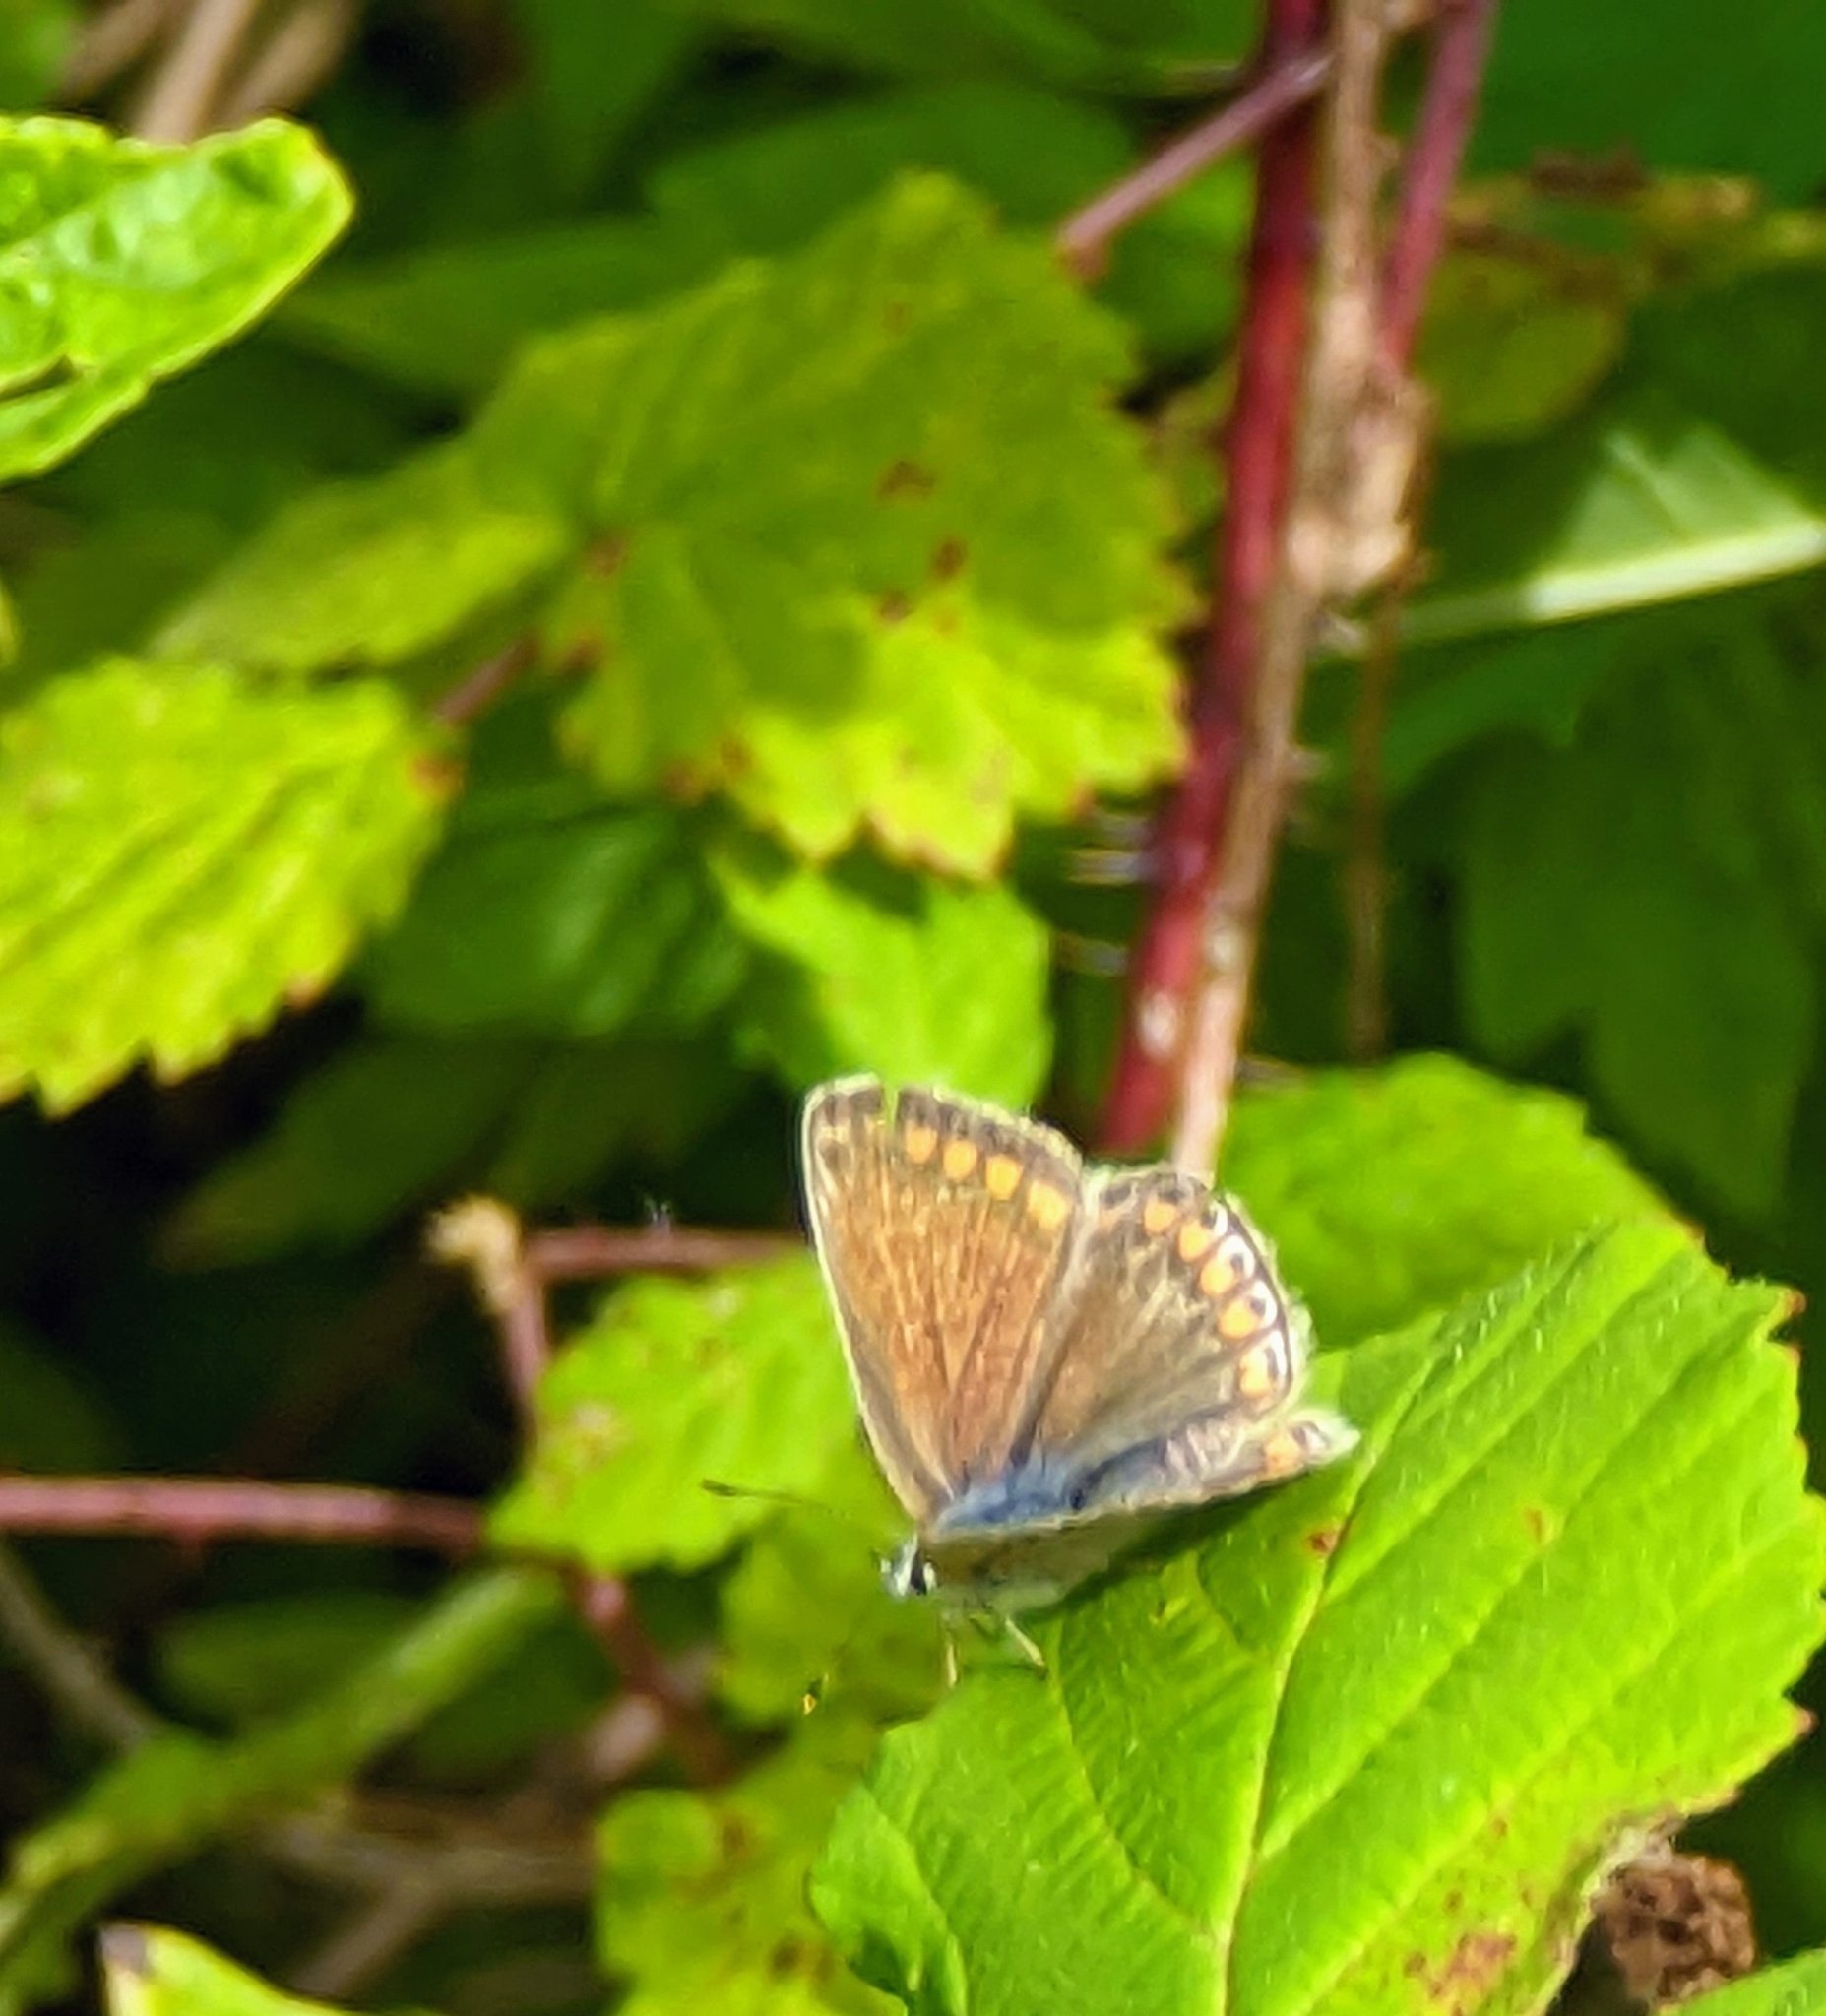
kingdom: Animalia
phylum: Arthropoda
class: Insecta
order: Lepidoptera
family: Lycaenidae
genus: Polyommatus
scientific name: Polyommatus icarus
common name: Common blue
